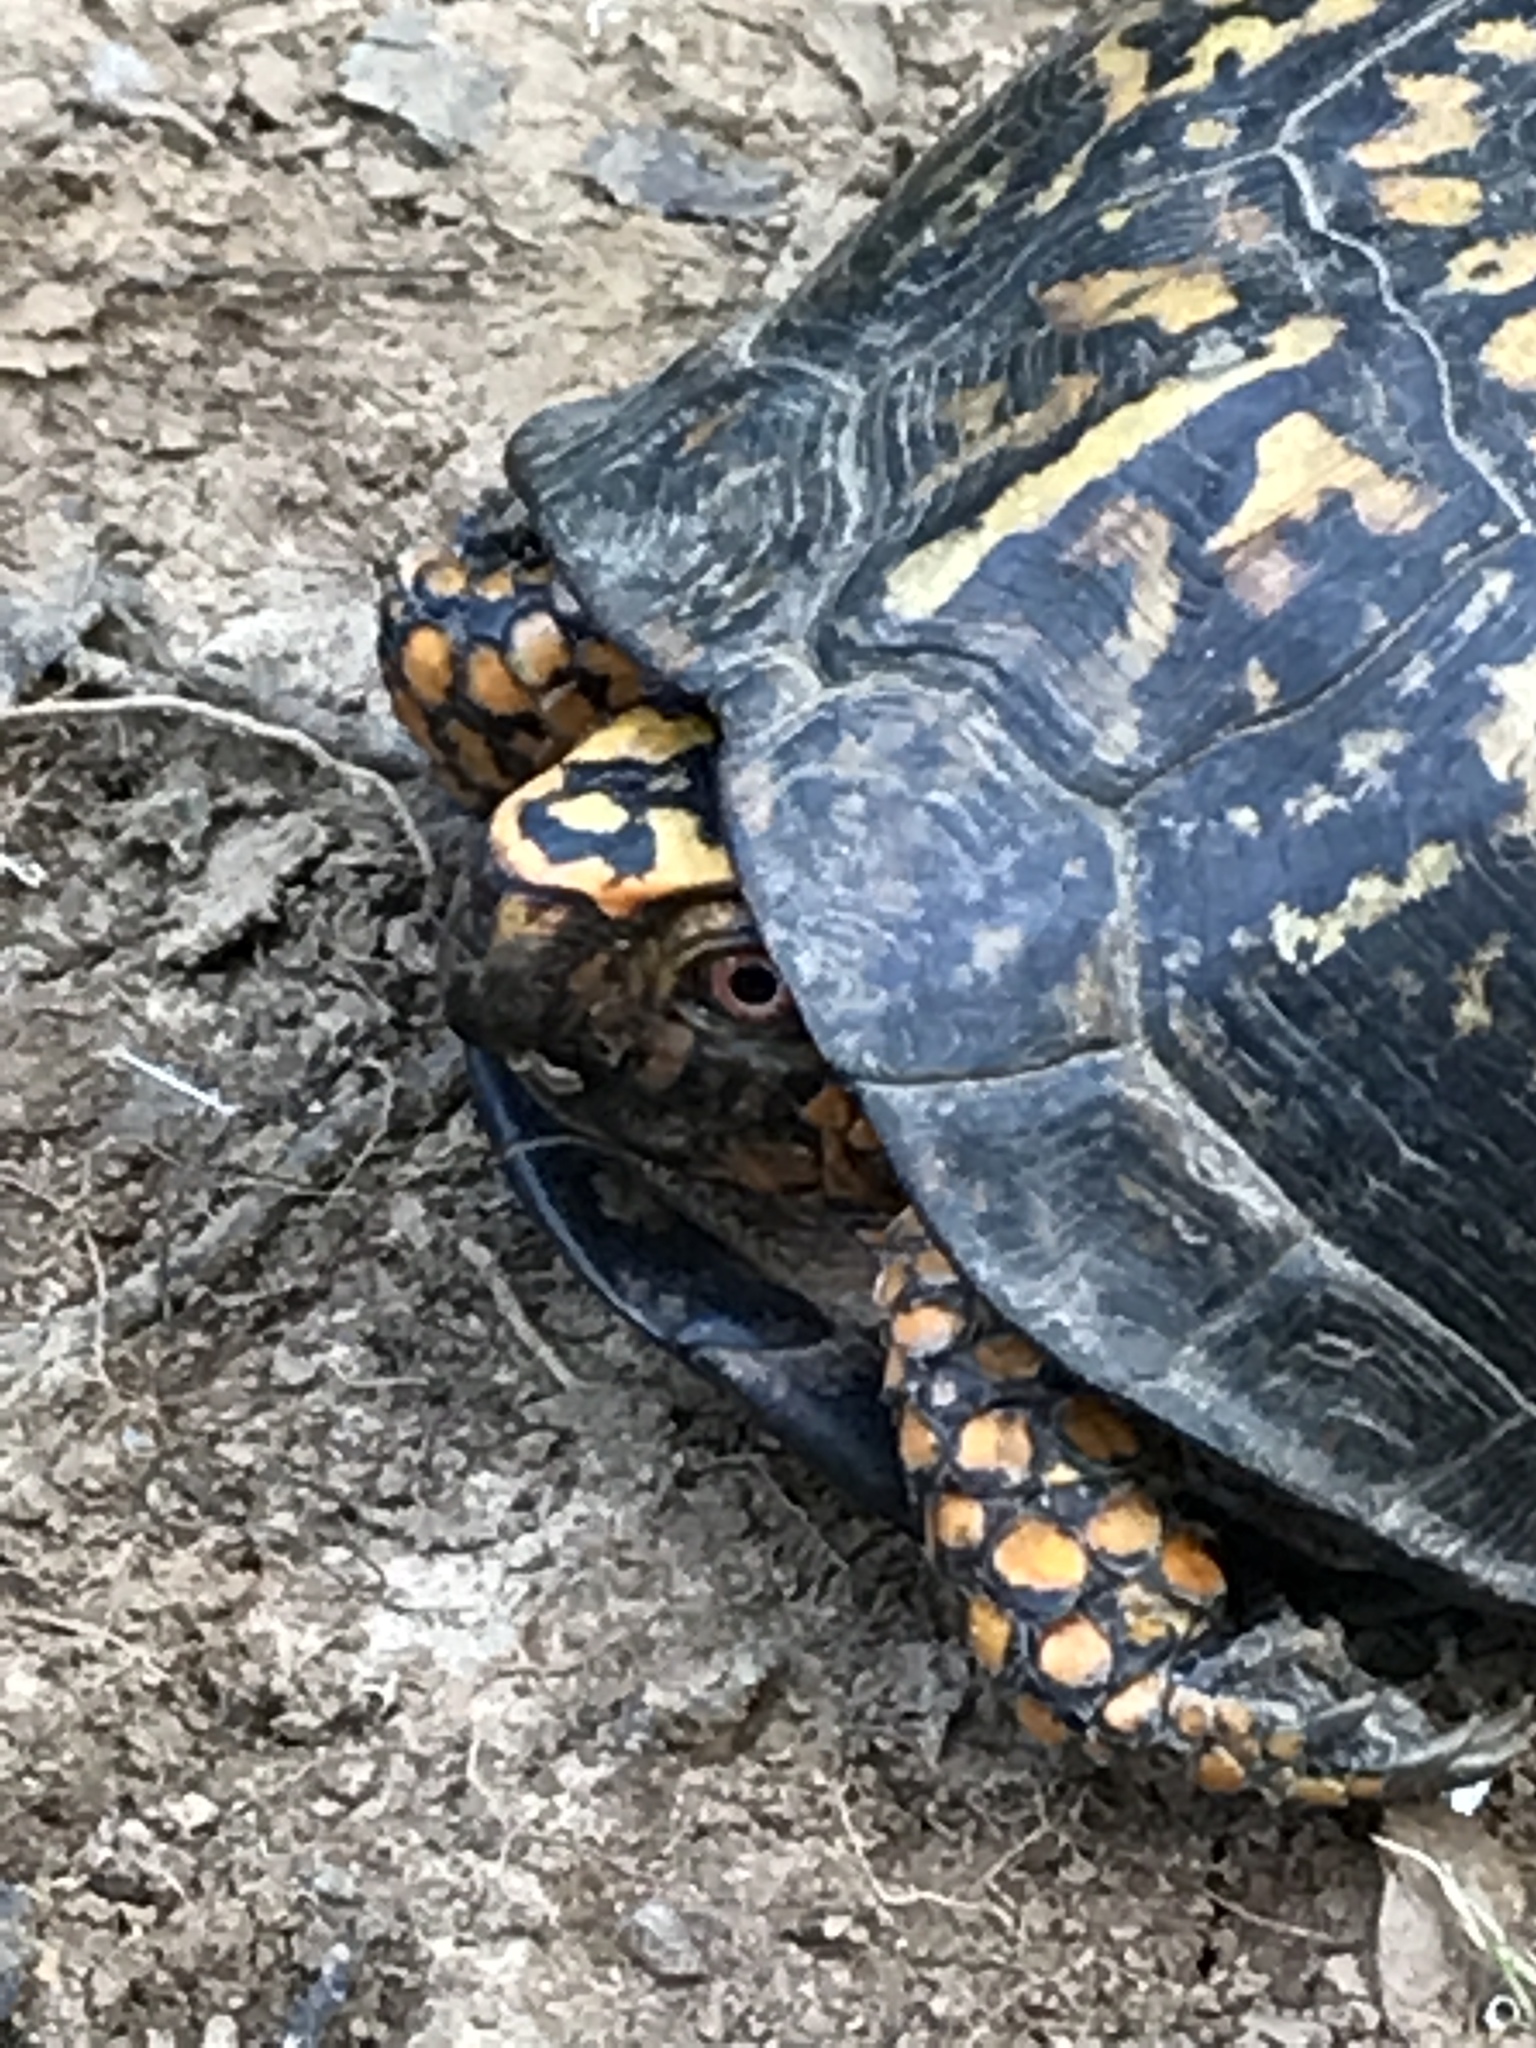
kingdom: Animalia
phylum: Chordata
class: Testudines
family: Emydidae
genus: Terrapene
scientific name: Terrapene carolina
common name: Common box turtle
